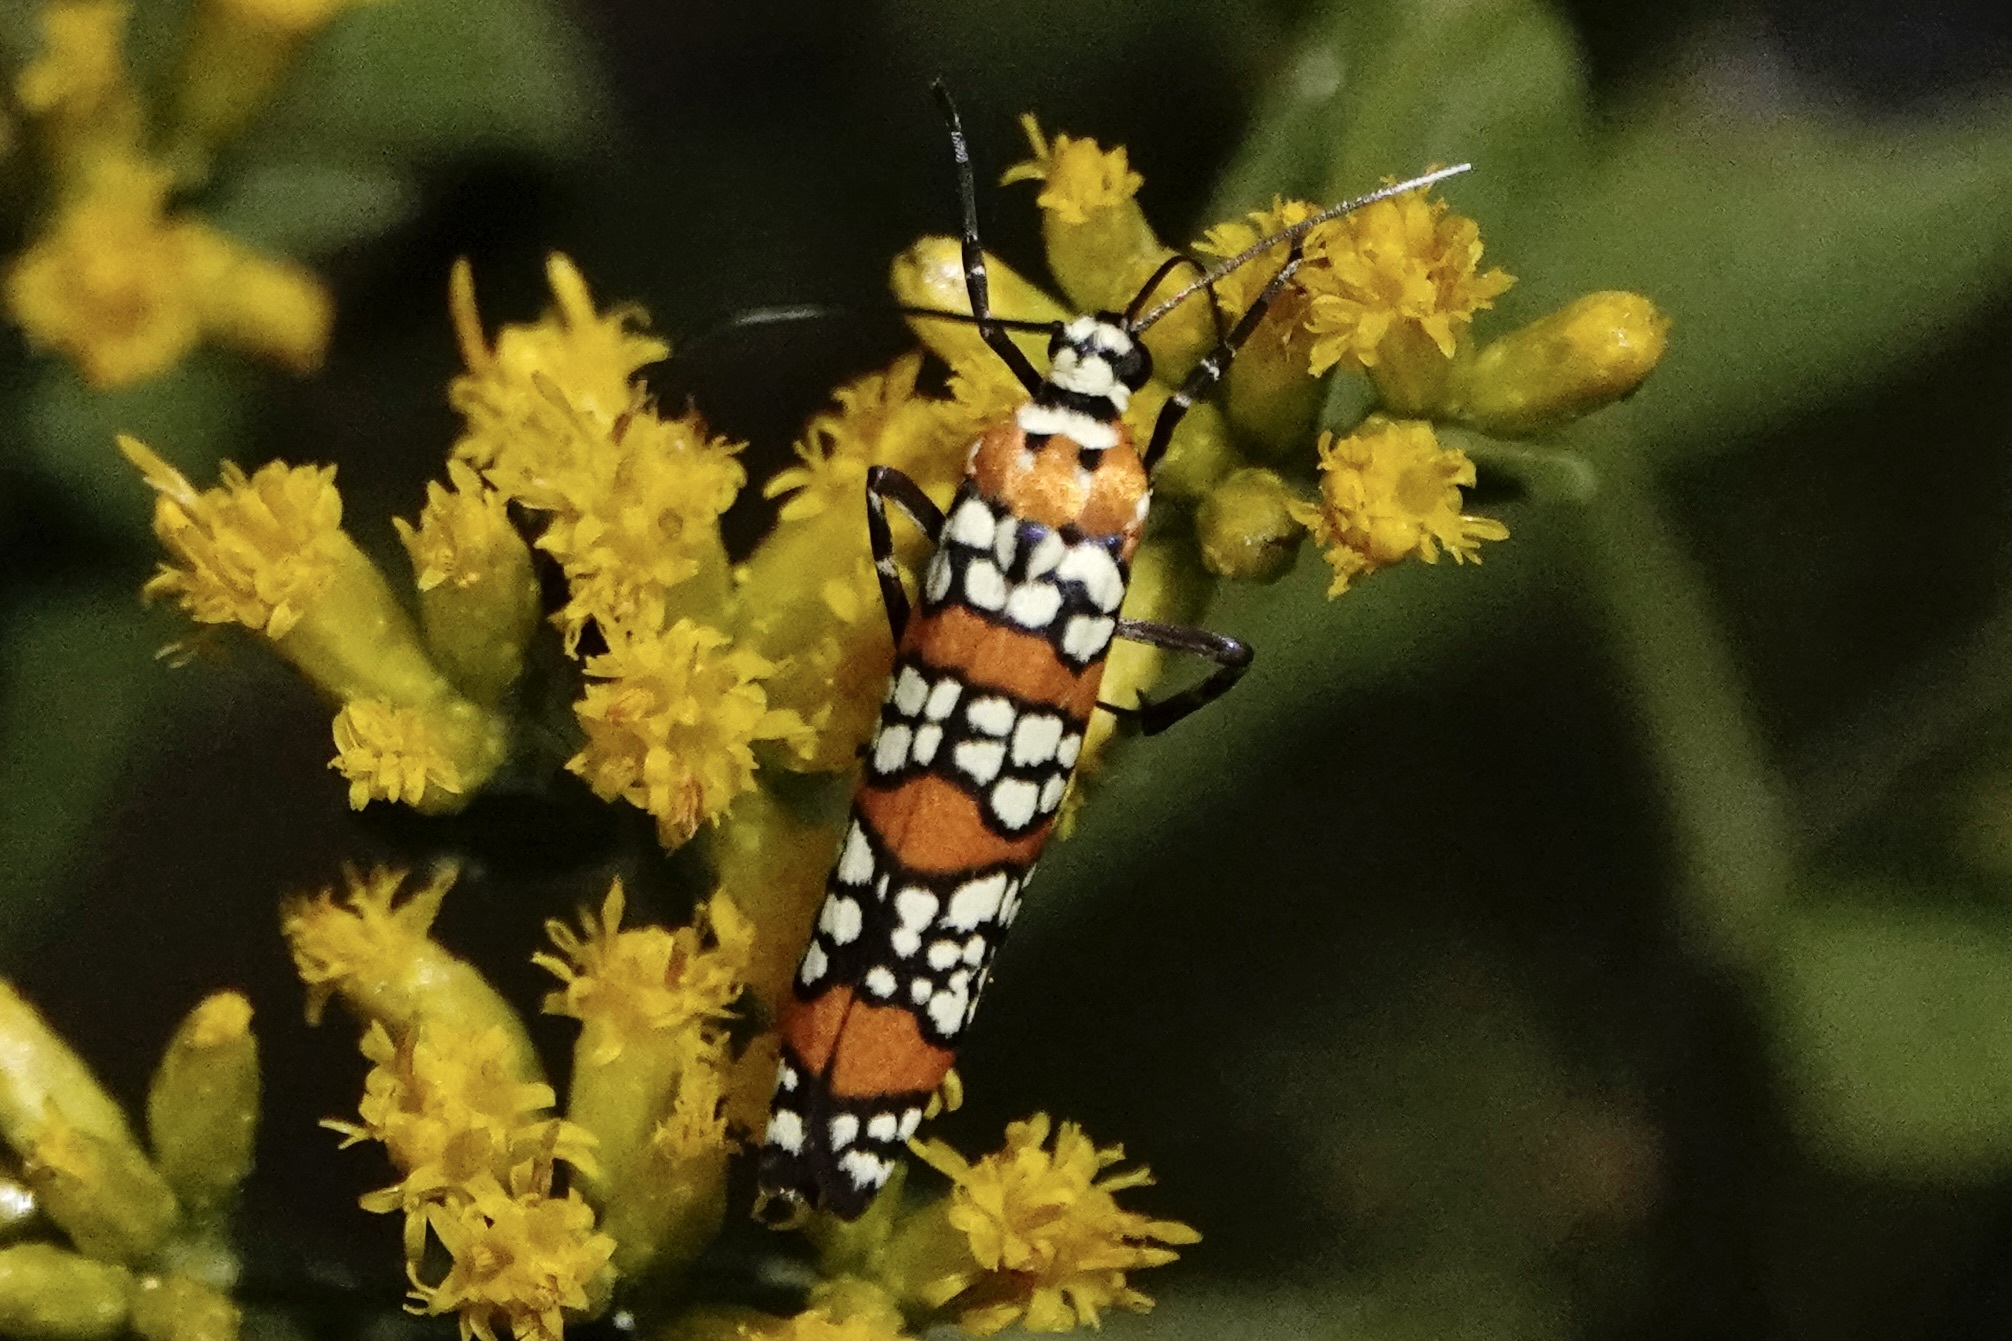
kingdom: Animalia
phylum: Arthropoda
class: Insecta
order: Lepidoptera
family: Attevidae
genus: Atteva
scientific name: Atteva punctella
